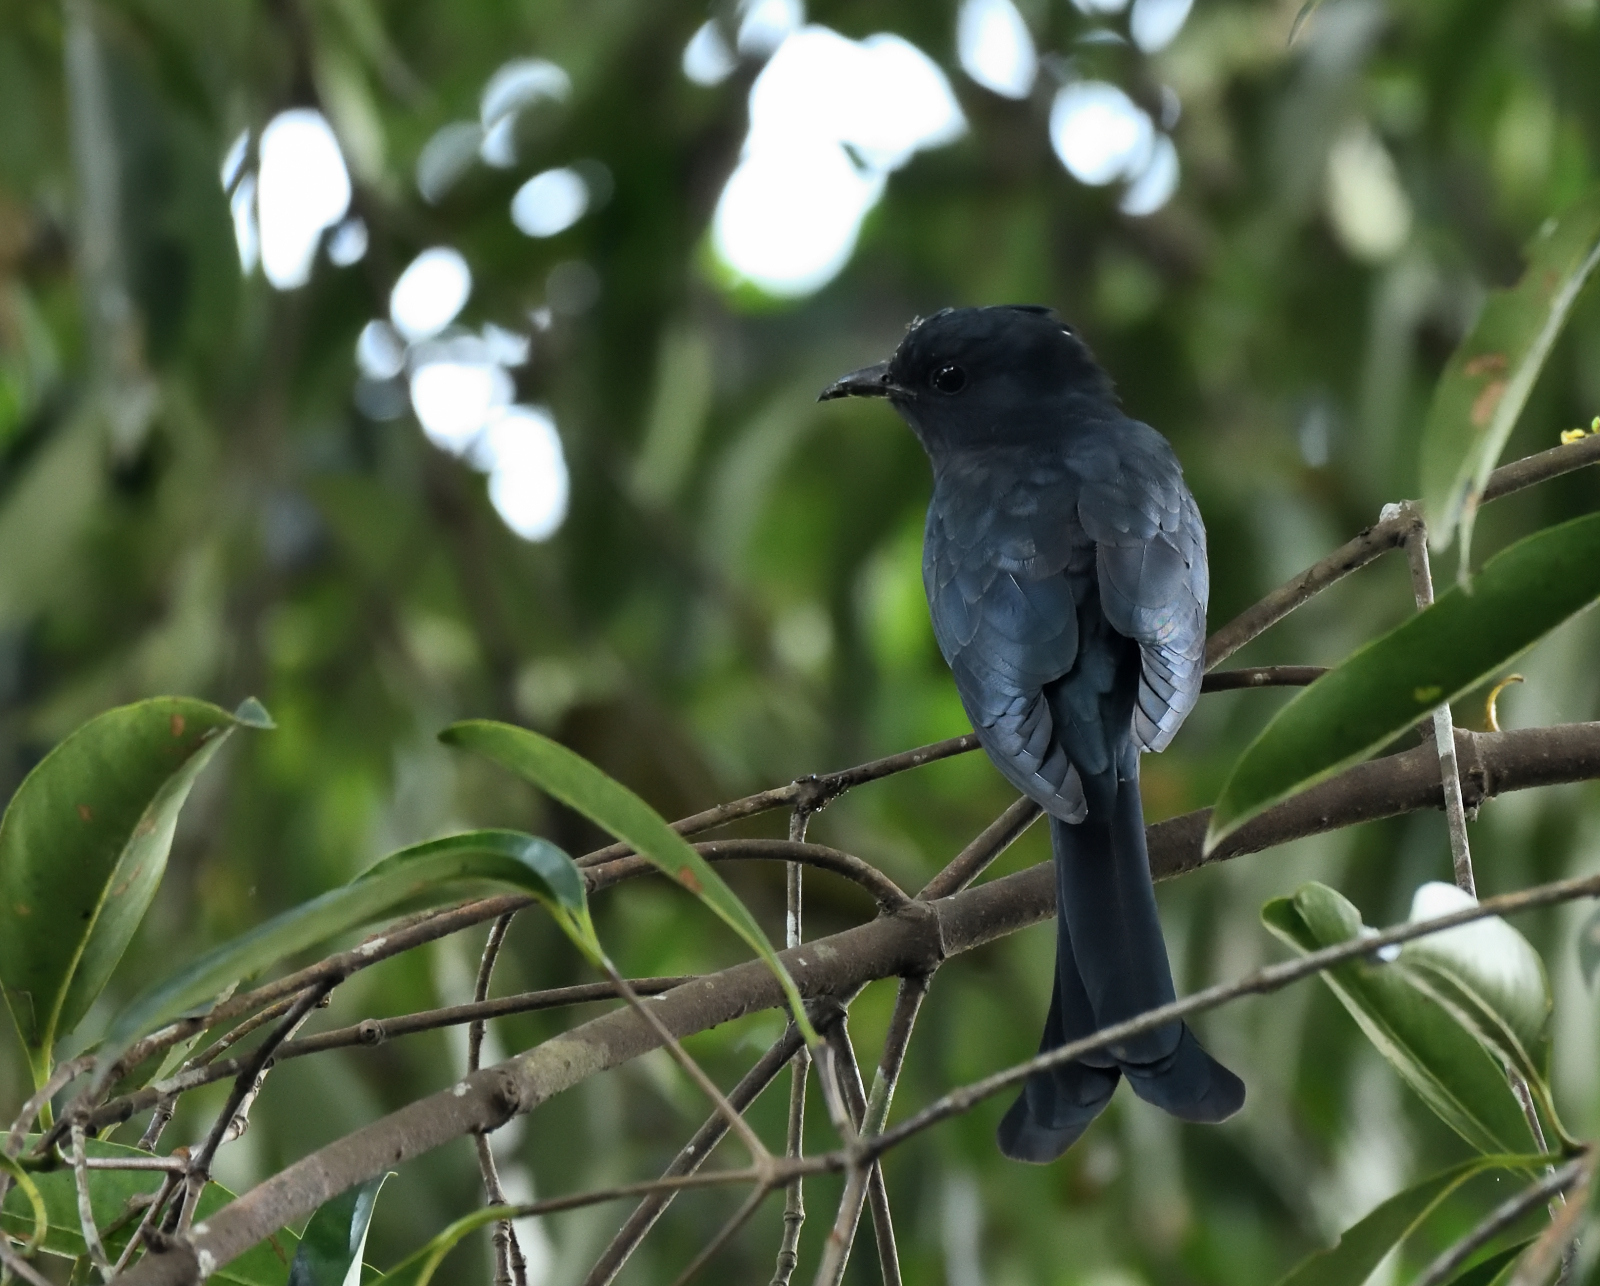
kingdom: Animalia
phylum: Chordata
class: Aves
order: Cuculiformes
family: Cuculidae
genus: Surniculus
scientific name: Surniculus lugubris
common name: Square-tailed drongo-cuckoo
